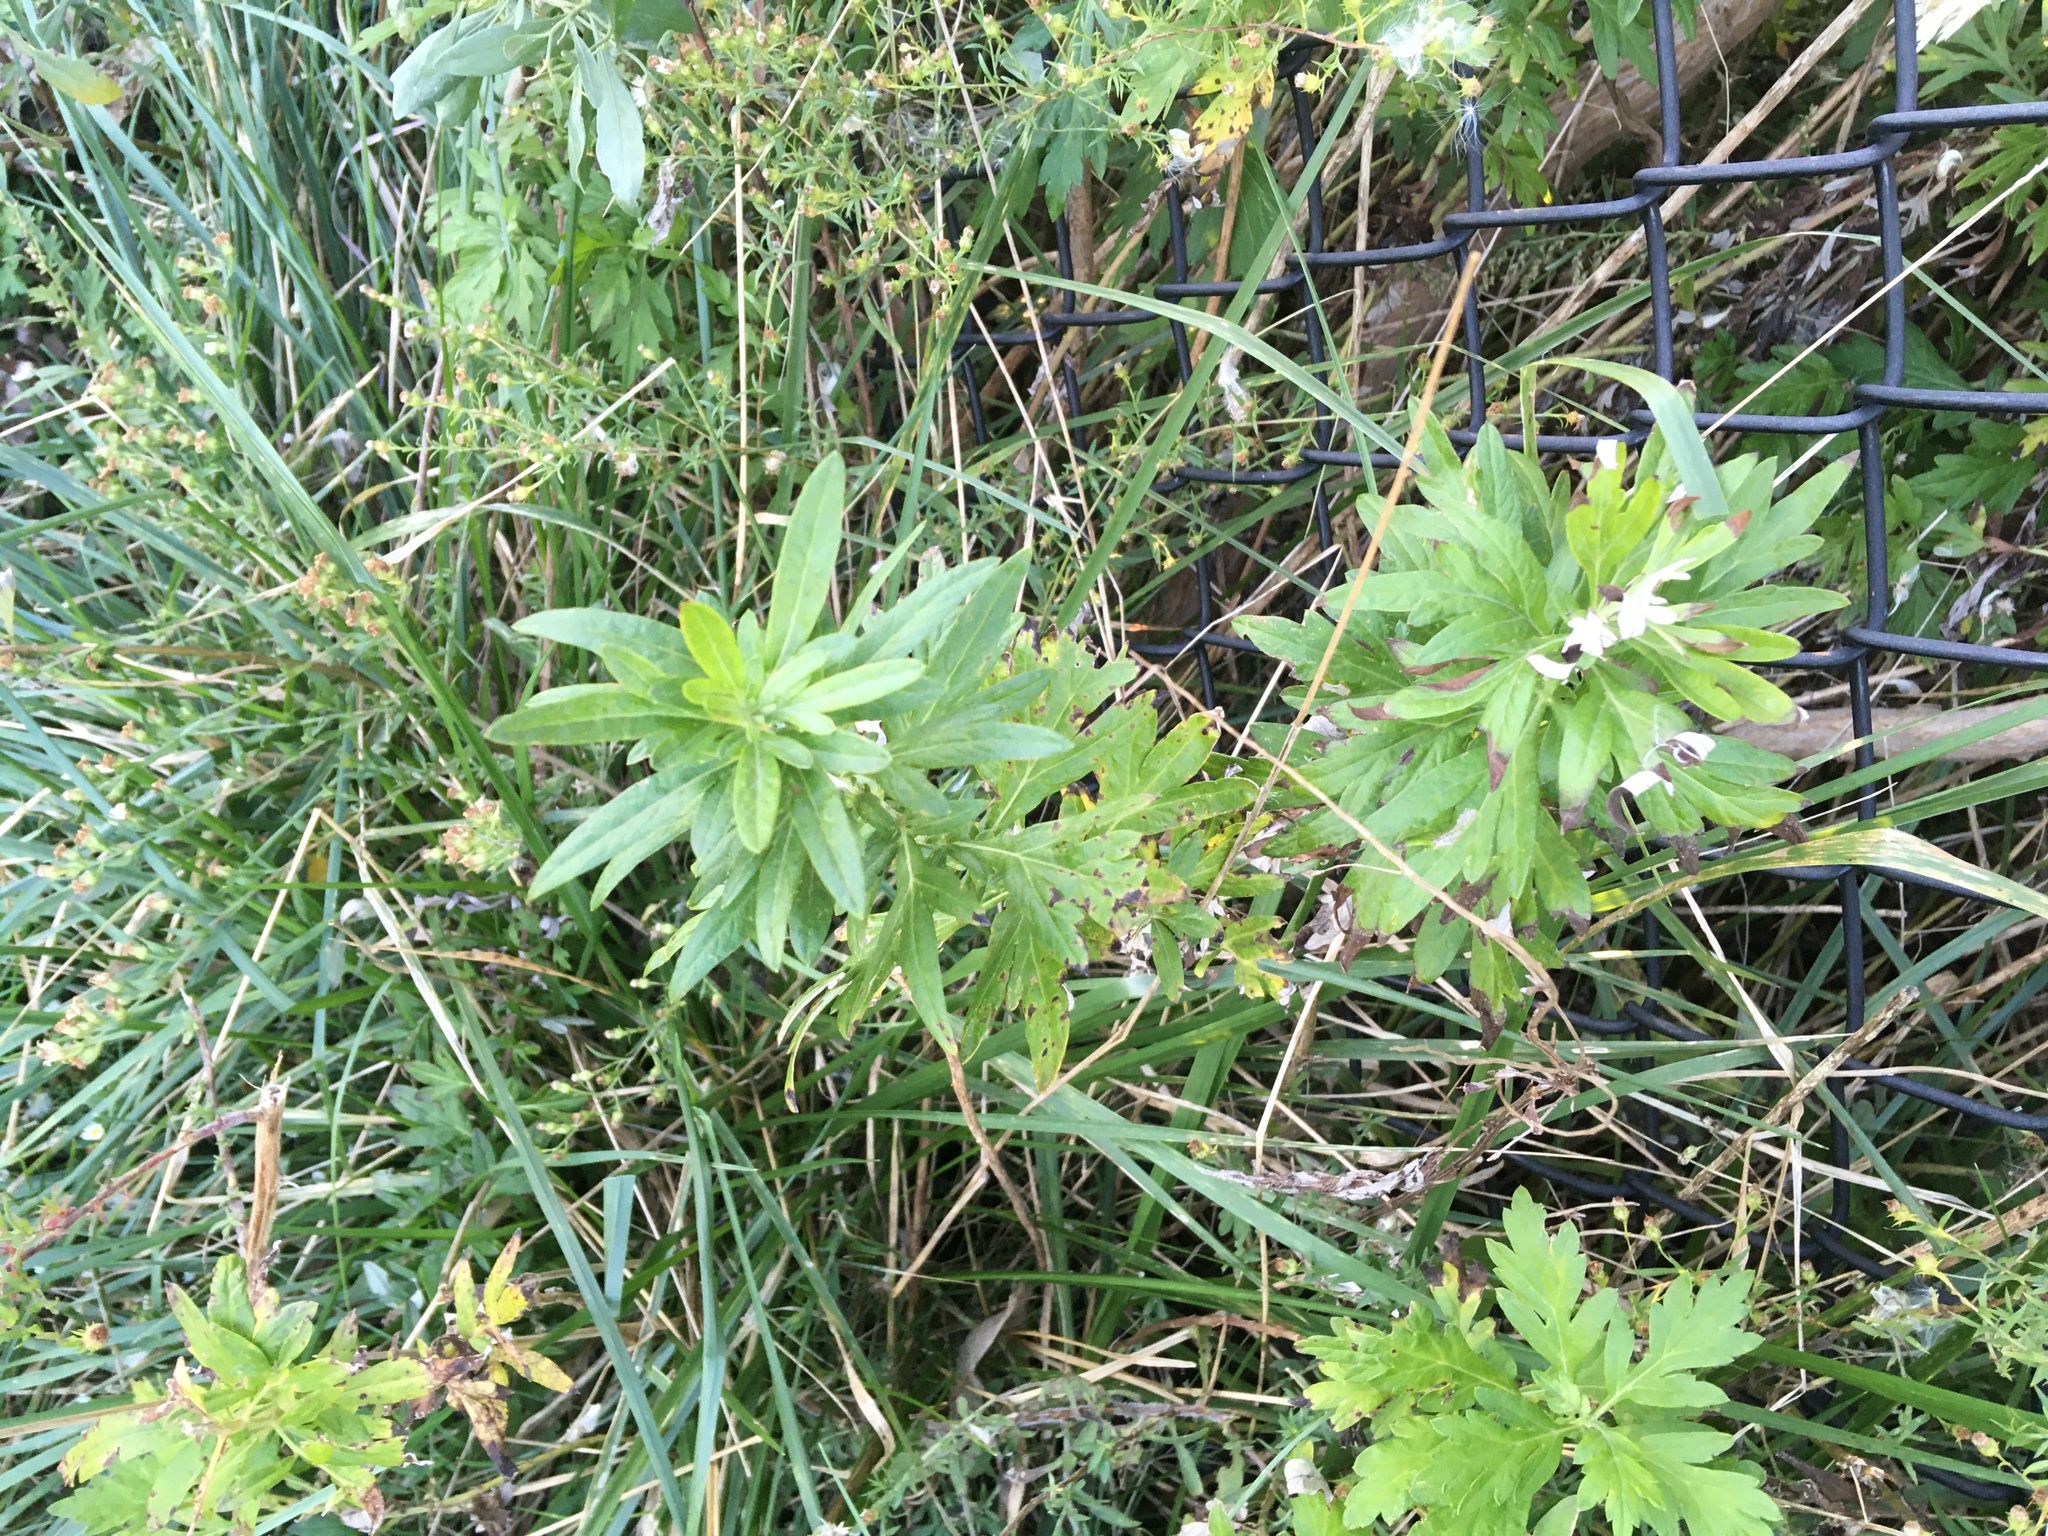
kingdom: Plantae
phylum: Tracheophyta
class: Magnoliopsida
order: Asterales
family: Asteraceae
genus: Artemisia
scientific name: Artemisia vulgaris
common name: Mugwort
